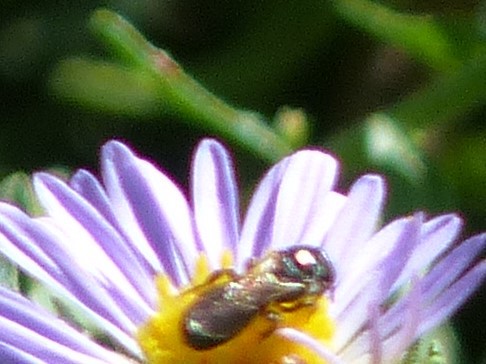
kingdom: Animalia
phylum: Arthropoda
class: Insecta
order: Hymenoptera
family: Apidae
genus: Zadontomerus
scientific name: Zadontomerus
